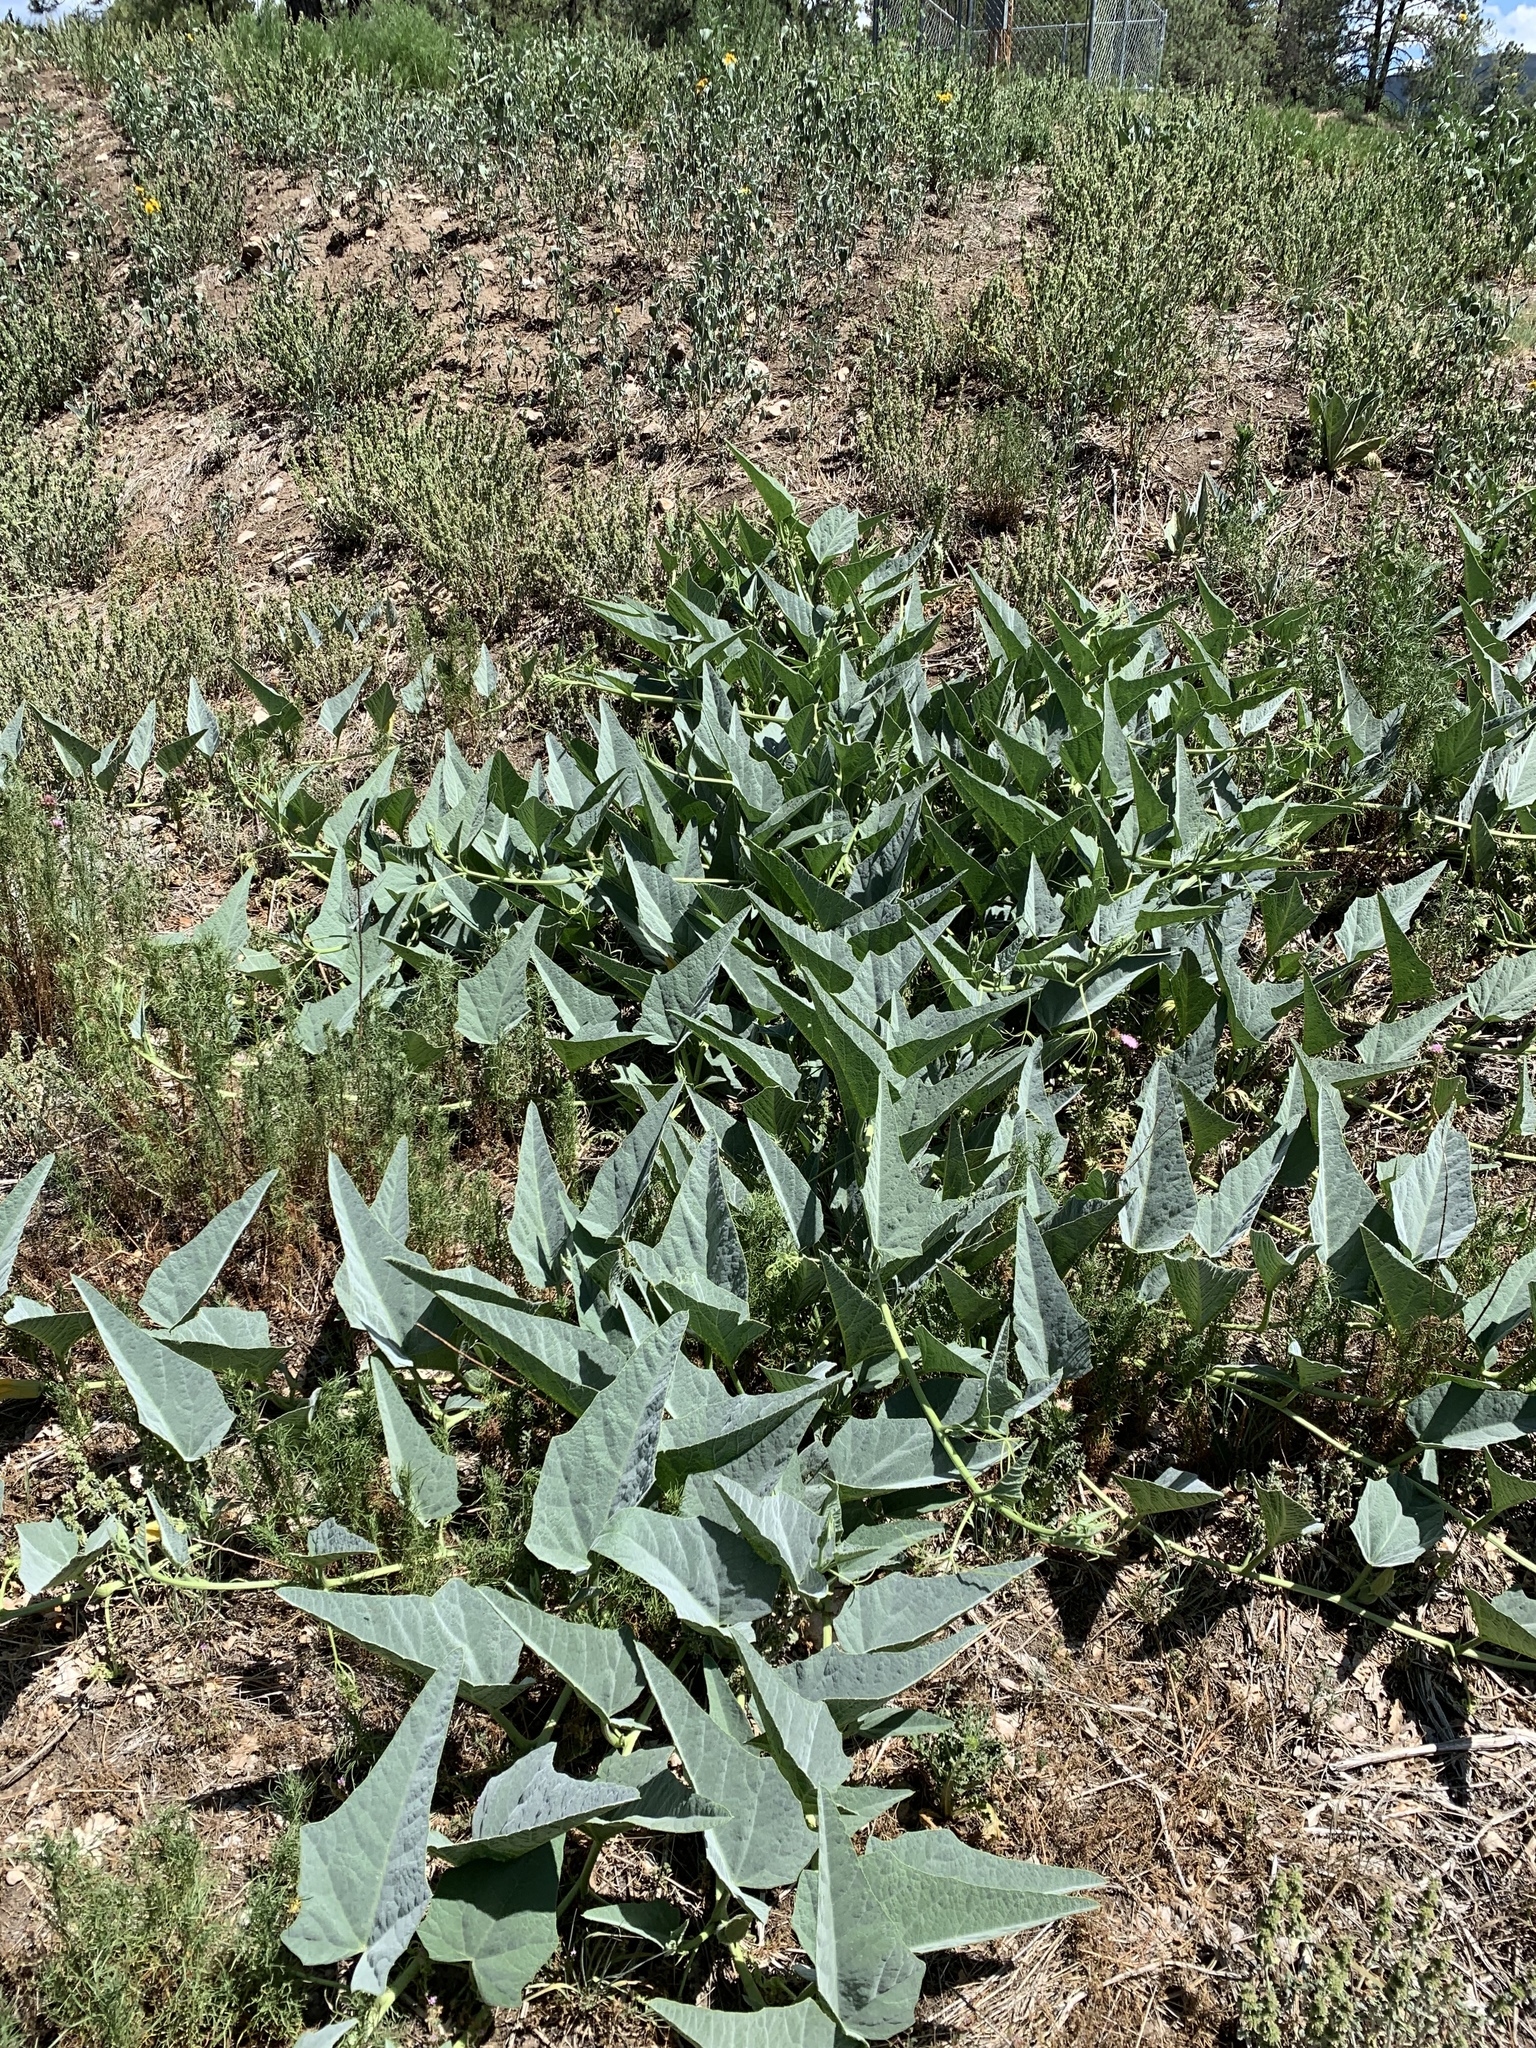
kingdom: Plantae
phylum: Tracheophyta
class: Magnoliopsida
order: Cucurbitales
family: Cucurbitaceae
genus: Cucurbita
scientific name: Cucurbita foetidissima
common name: Buffalo gourd
